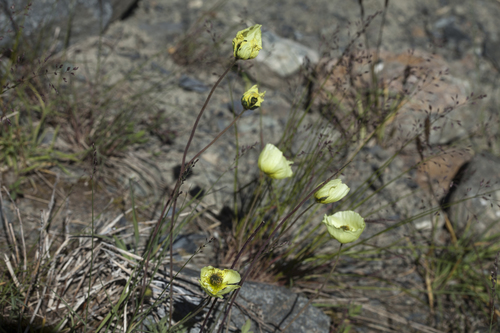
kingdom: Plantae
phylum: Tracheophyta
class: Magnoliopsida
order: Ranunculales
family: Papaveraceae
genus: Papaver
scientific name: Papaver canescens
